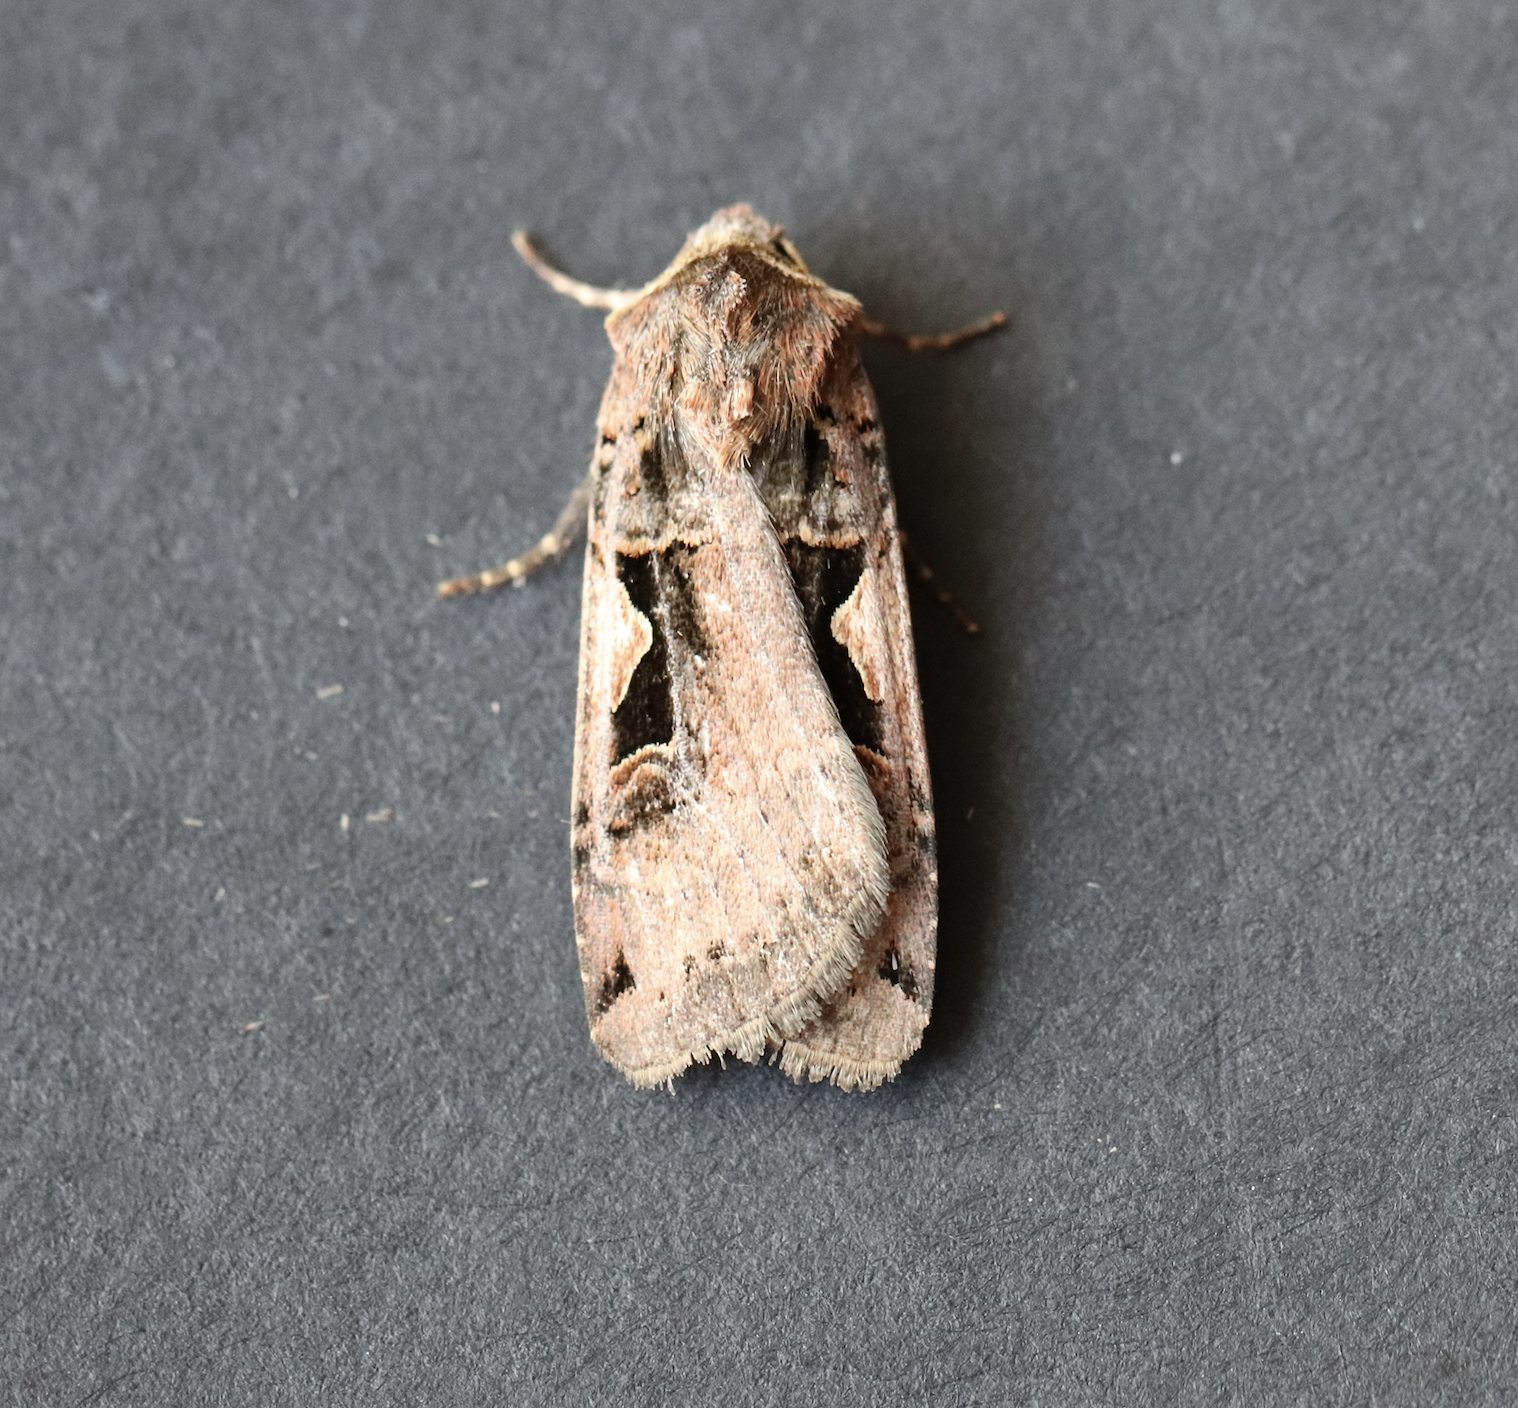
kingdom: Animalia
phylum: Arthropoda
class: Insecta
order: Lepidoptera
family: Noctuidae
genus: Xestia
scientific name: Xestia c-nigrum
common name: Setaceous hebrew character
